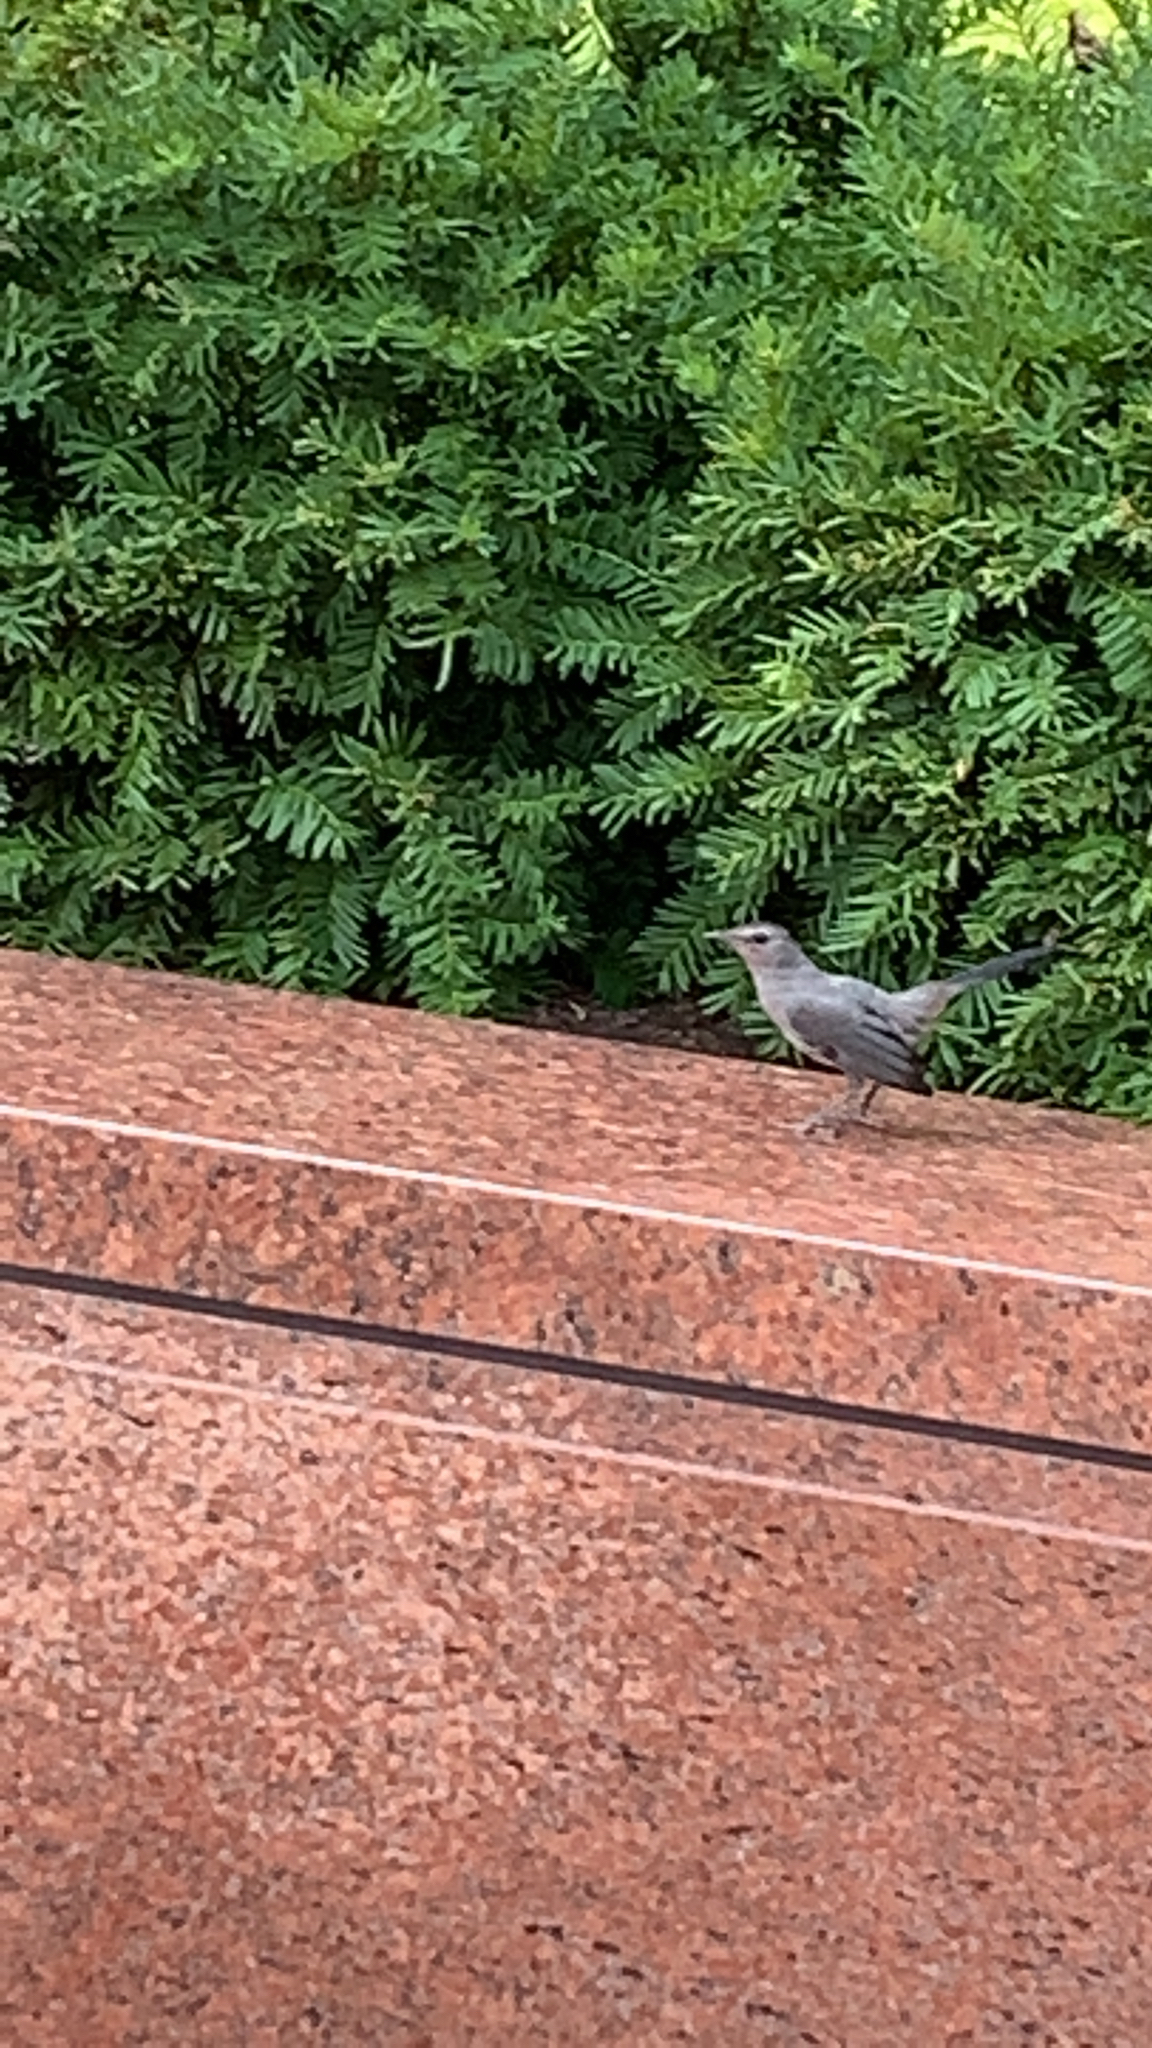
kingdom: Animalia
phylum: Chordata
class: Aves
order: Passeriformes
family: Mimidae
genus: Dumetella
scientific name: Dumetella carolinensis
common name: Gray catbird
